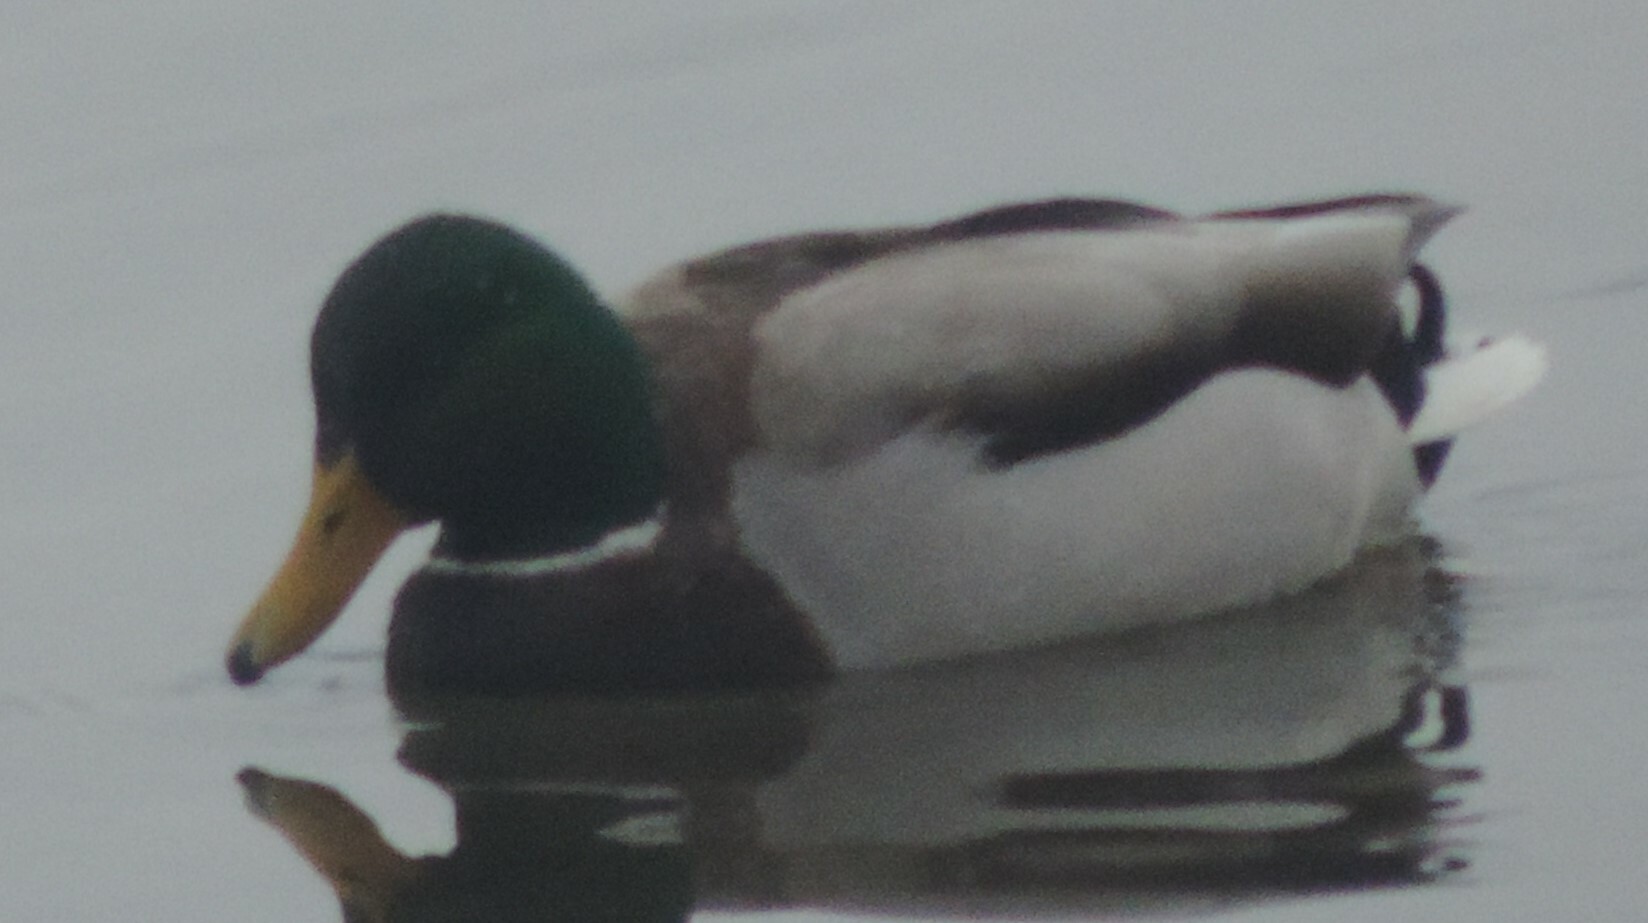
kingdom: Animalia
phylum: Chordata
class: Aves
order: Anseriformes
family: Anatidae
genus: Anas
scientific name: Anas platyrhynchos
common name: Mallard
